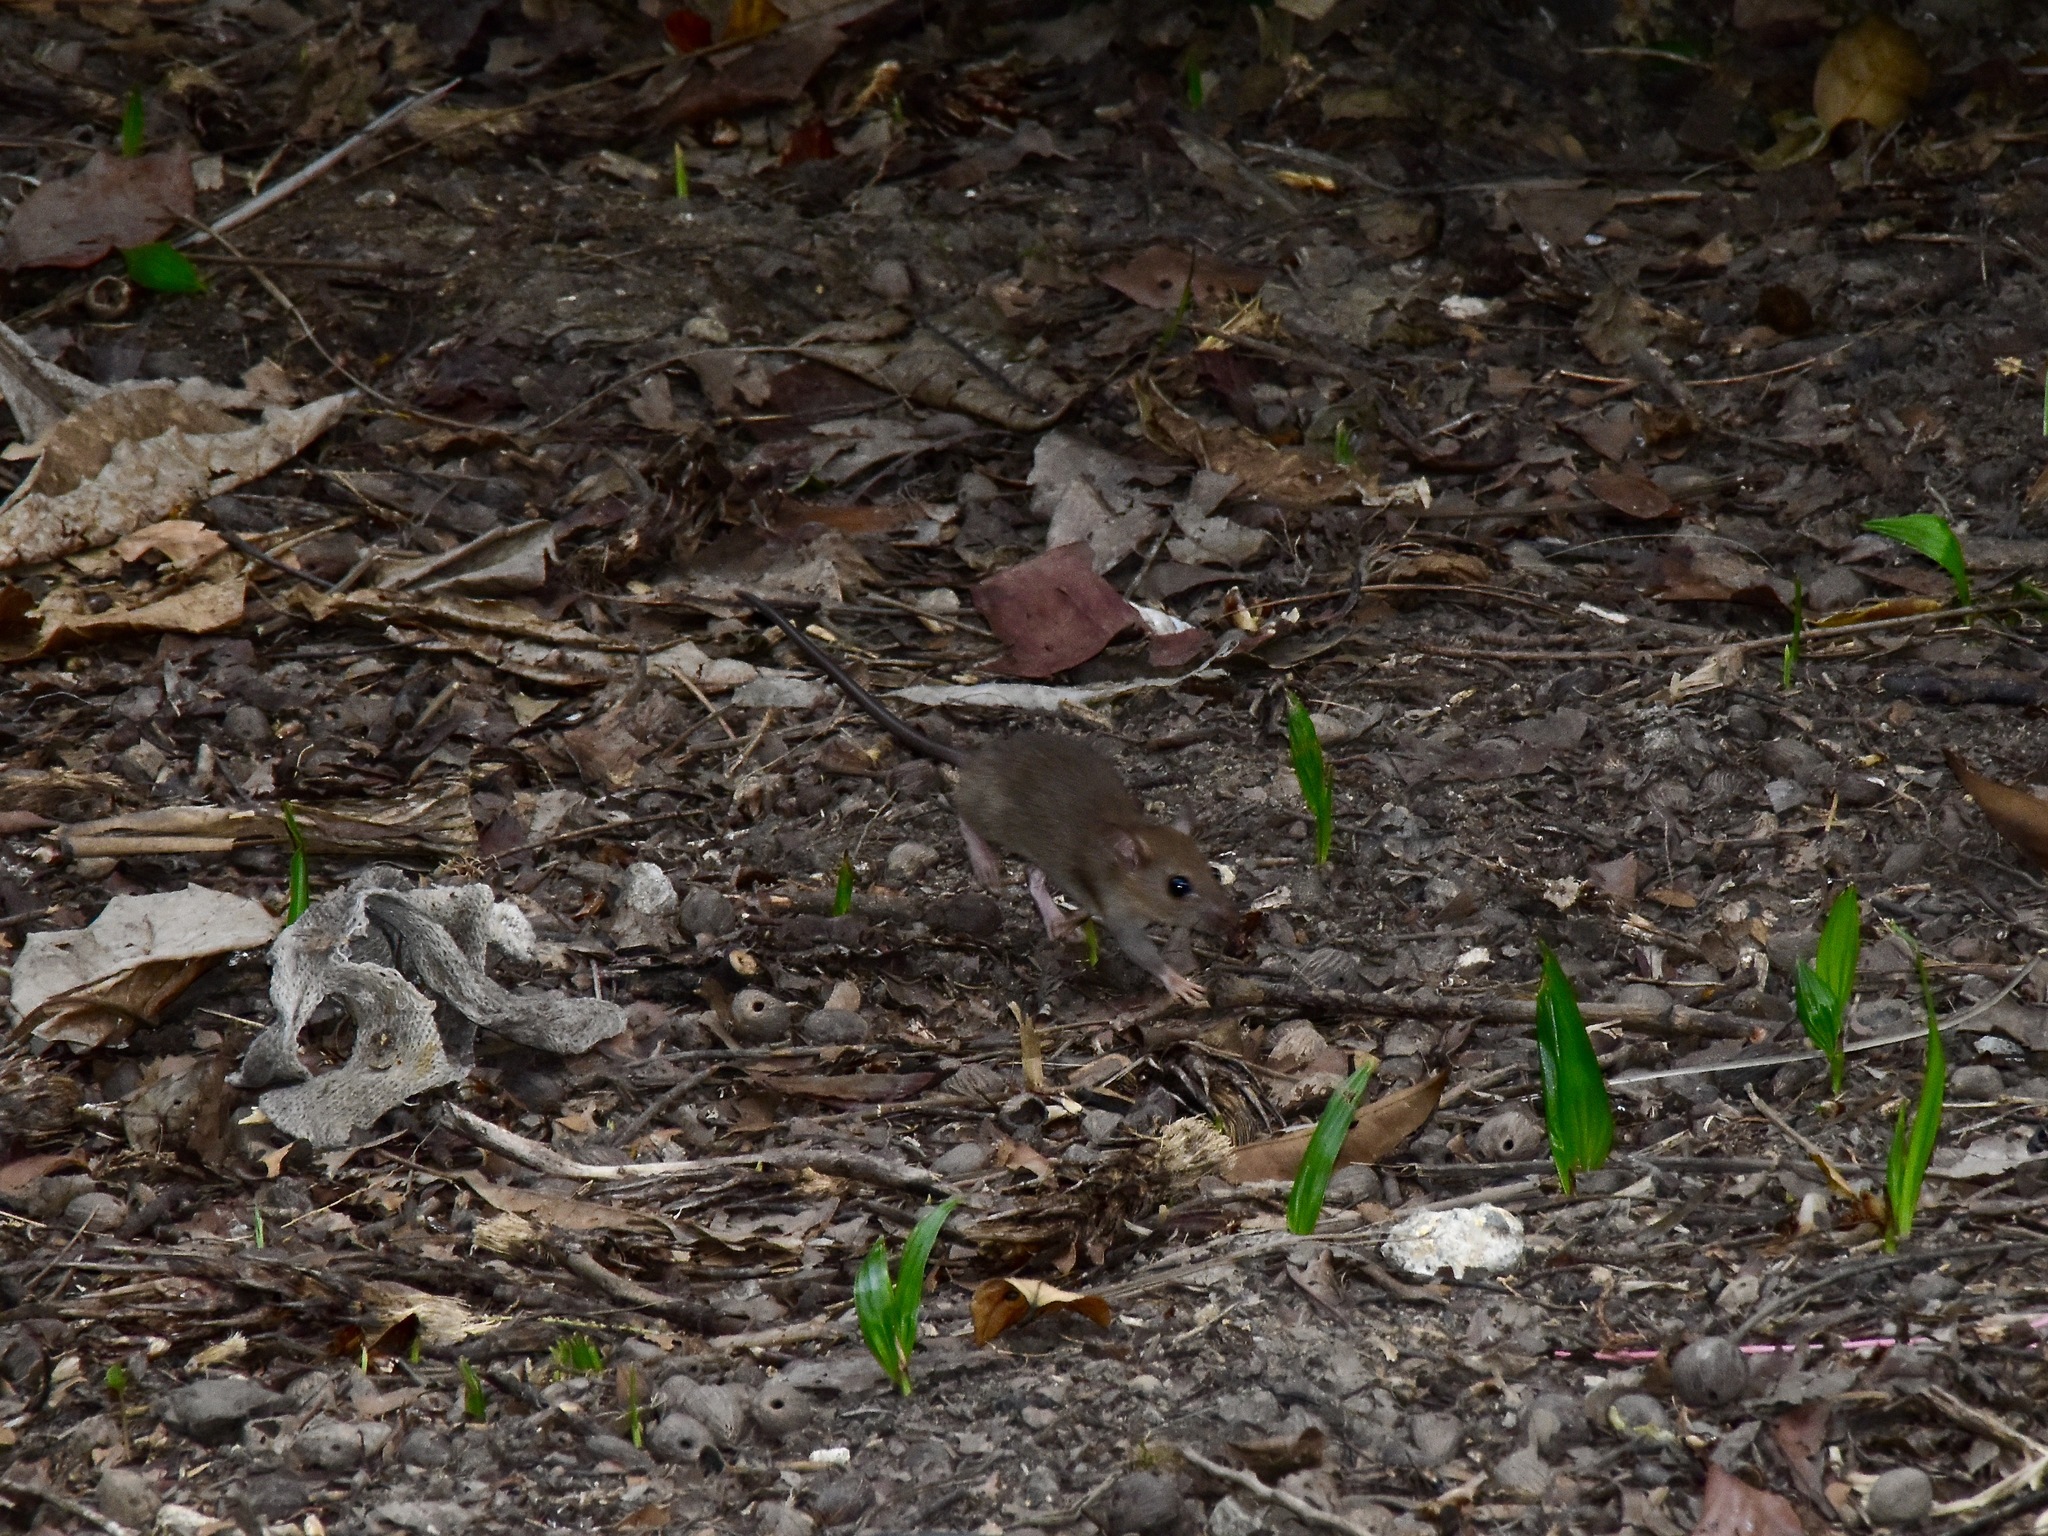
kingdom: Animalia
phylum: Chordata
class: Mammalia
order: Rodentia
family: Muridae
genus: Rattus
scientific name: Rattus tanezumi
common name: Oriental house rat
